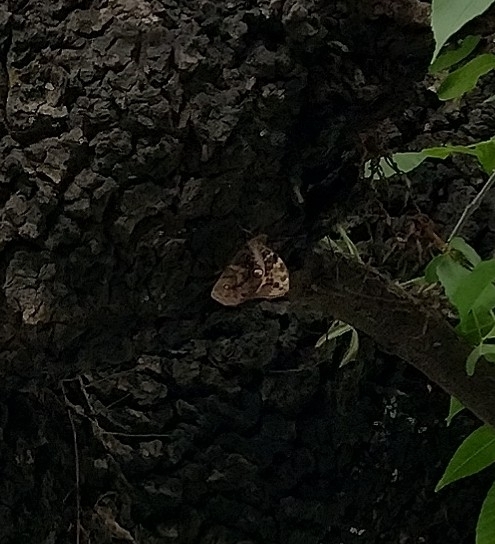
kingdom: Animalia
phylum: Arthropoda
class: Insecta
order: Lepidoptera
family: Nymphalidae
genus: Opsiphanes
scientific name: Opsiphanes invirae
